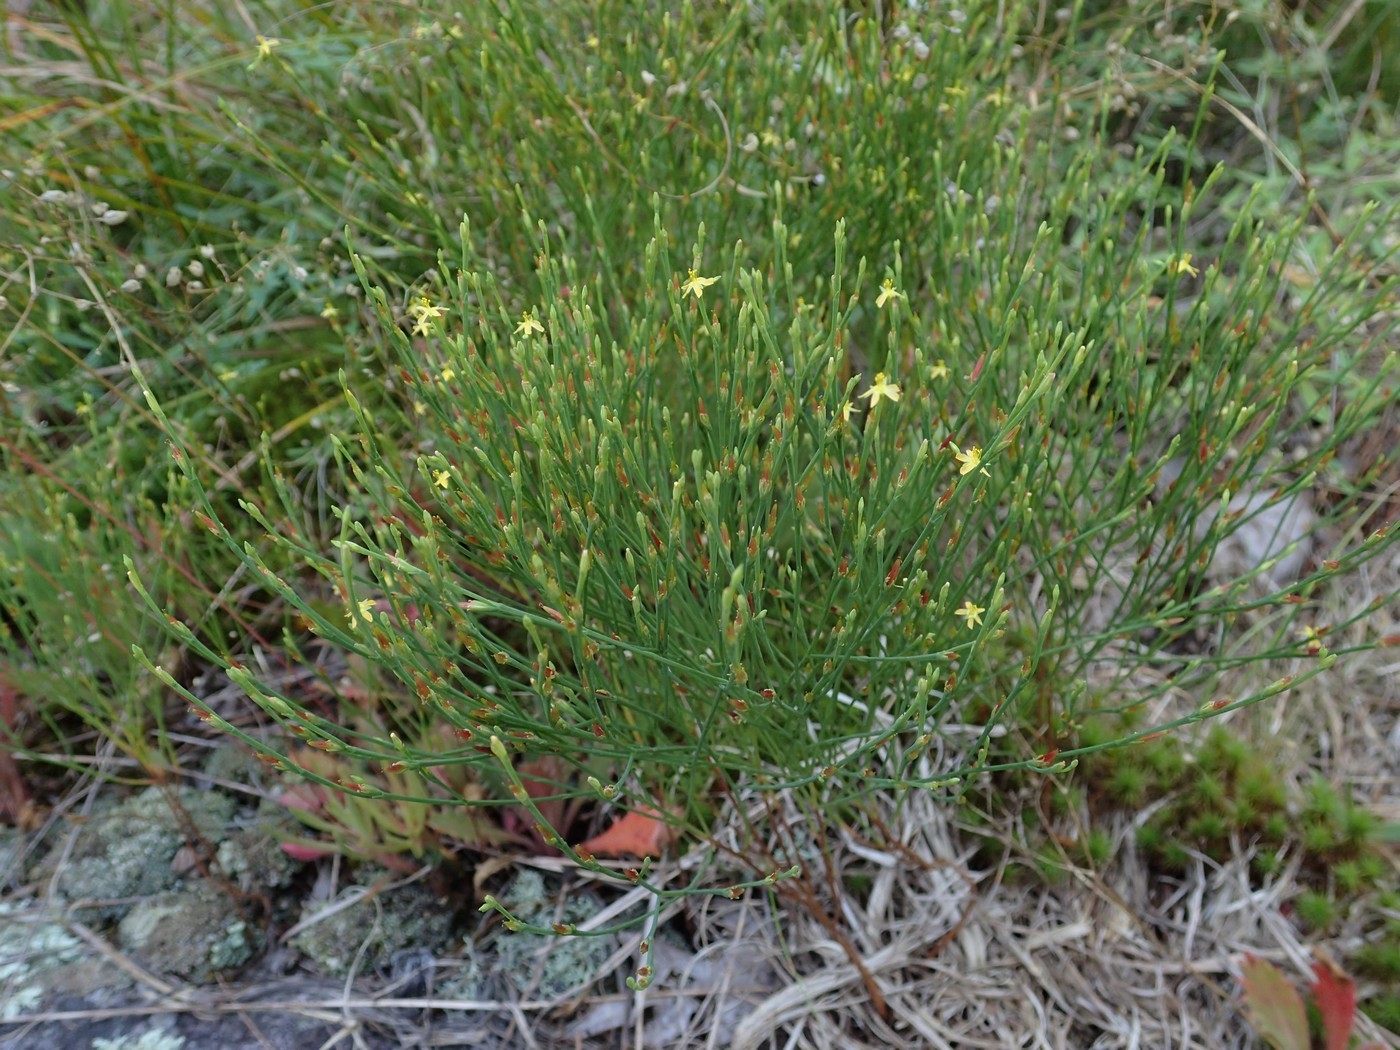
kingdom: Plantae
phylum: Tracheophyta
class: Magnoliopsida
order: Malpighiales
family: Hypericaceae
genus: Hypericum
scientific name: Hypericum gentianoides
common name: Gentian-leaved st. john's-wort
